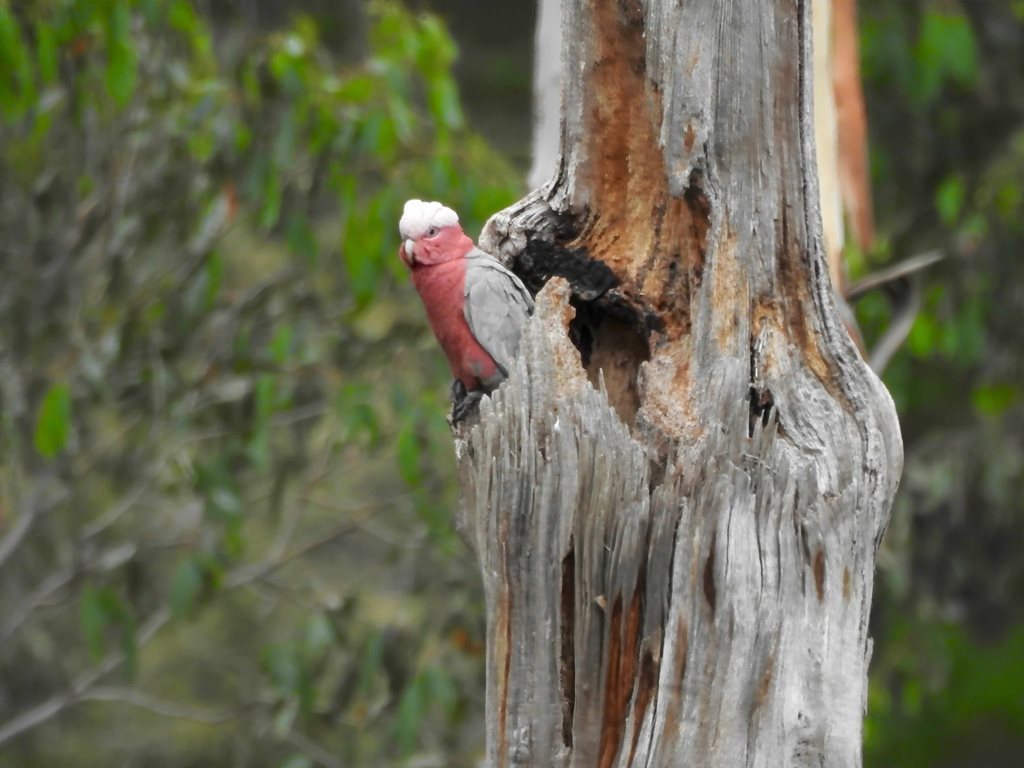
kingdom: Animalia
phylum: Chordata
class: Aves
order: Psittaciformes
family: Psittacidae
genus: Eolophus
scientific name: Eolophus roseicapilla
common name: Galah
